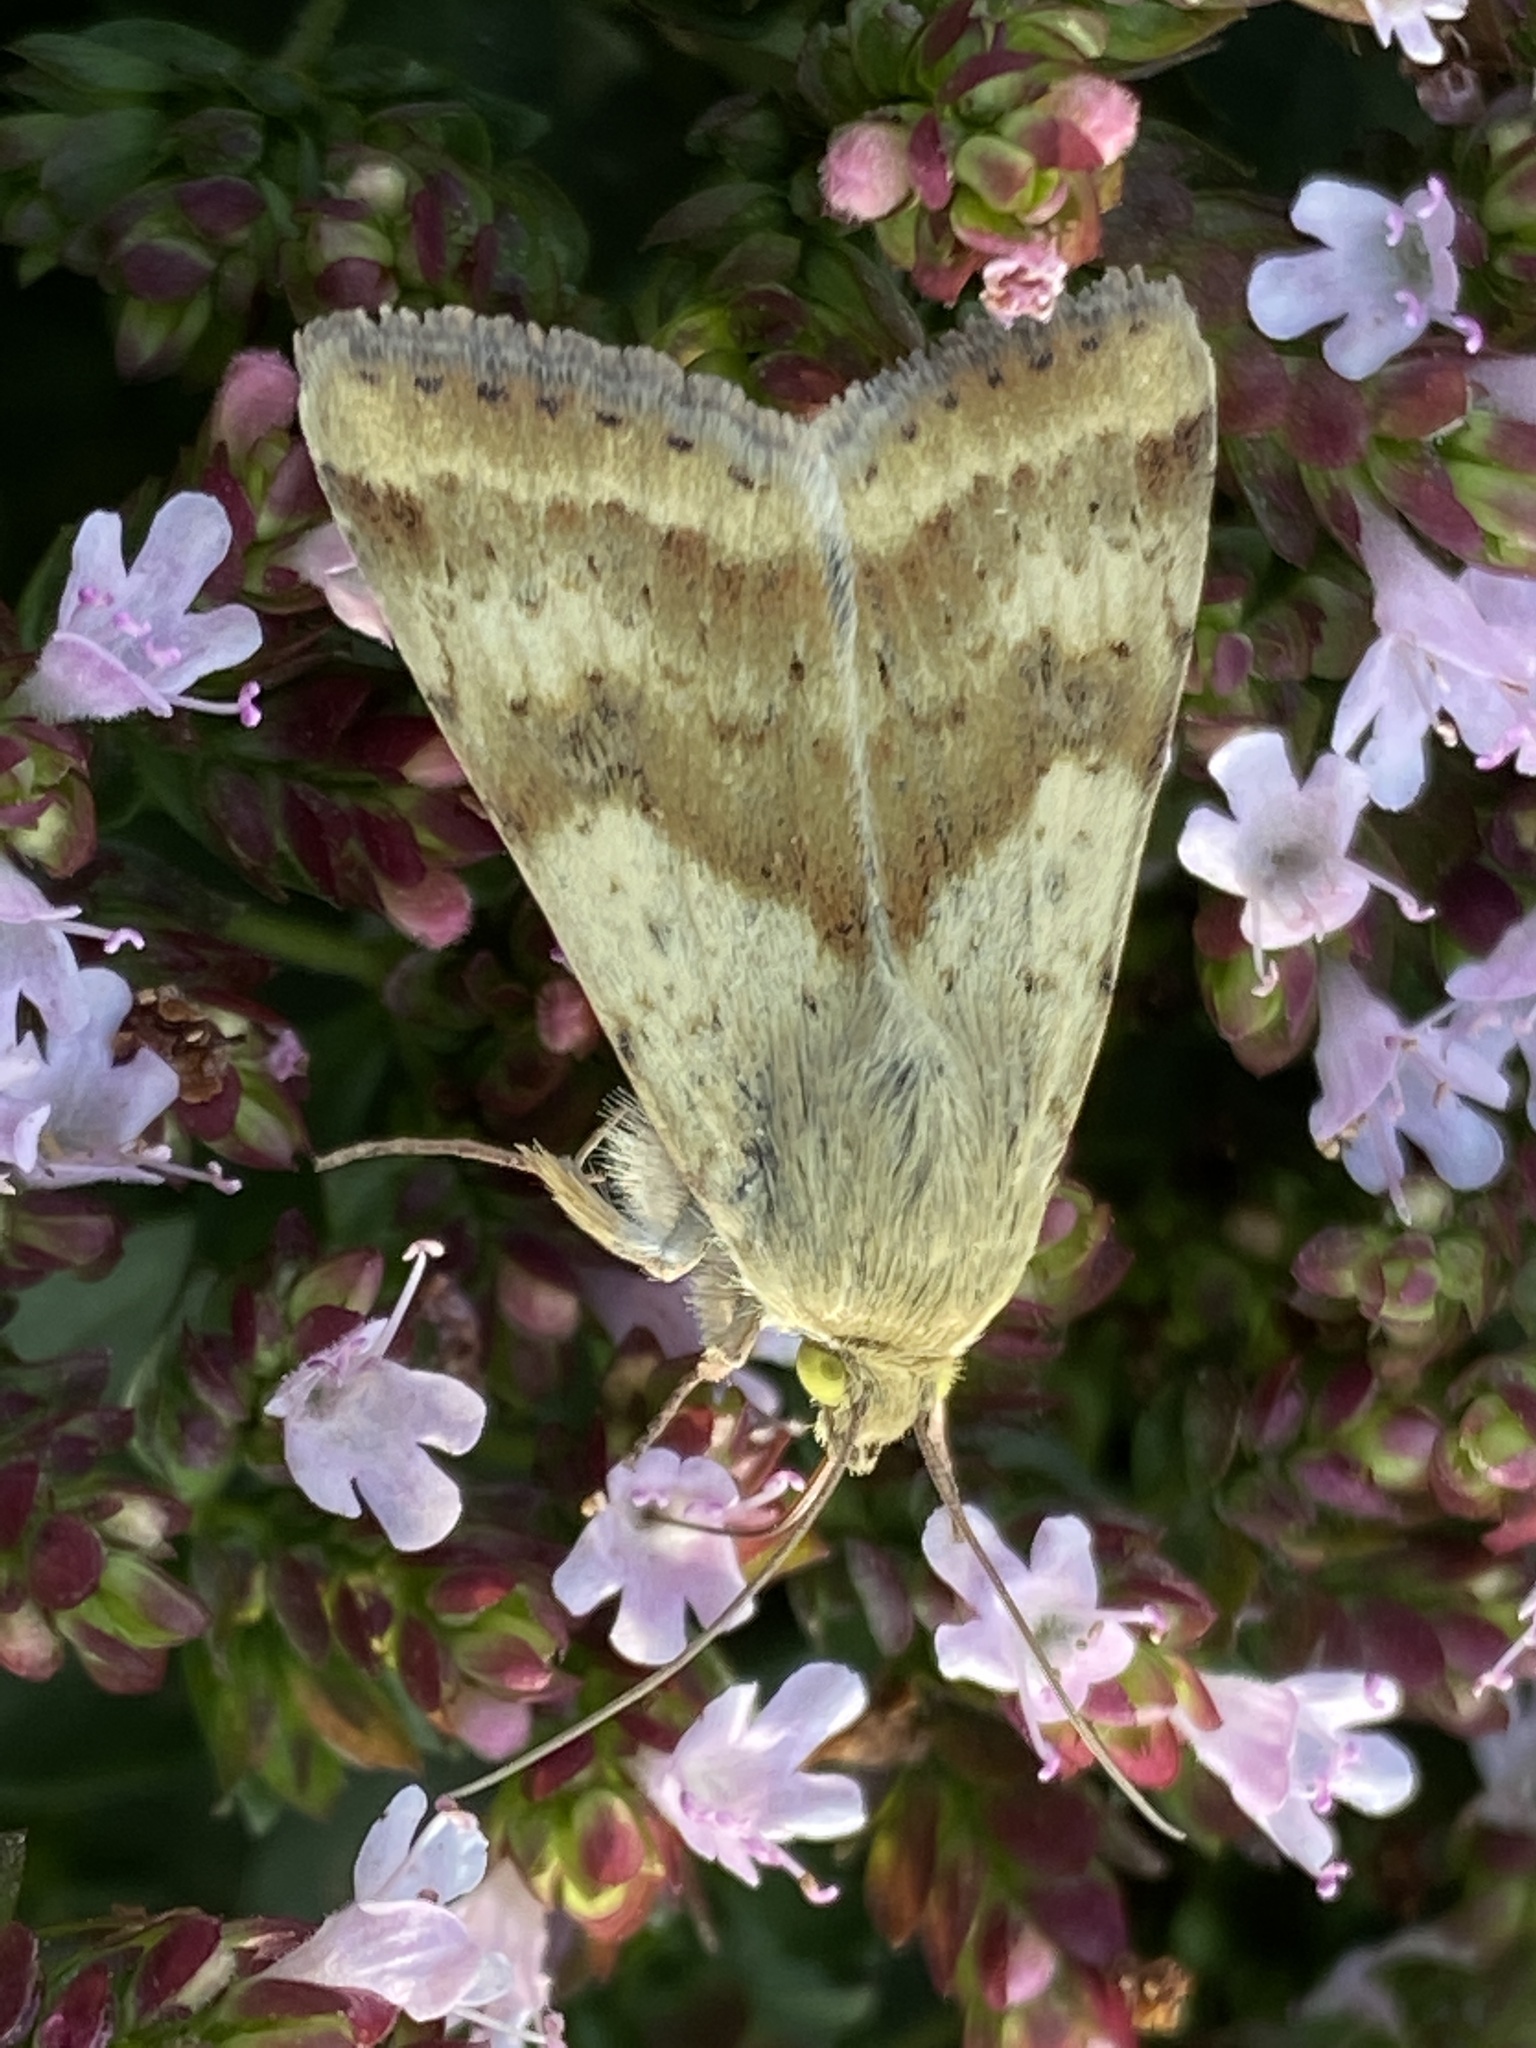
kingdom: Animalia
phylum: Arthropoda
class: Insecta
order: Lepidoptera
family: Noctuidae
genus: Heliothis
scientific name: Heliothis viriplaca
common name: Marbled clover
